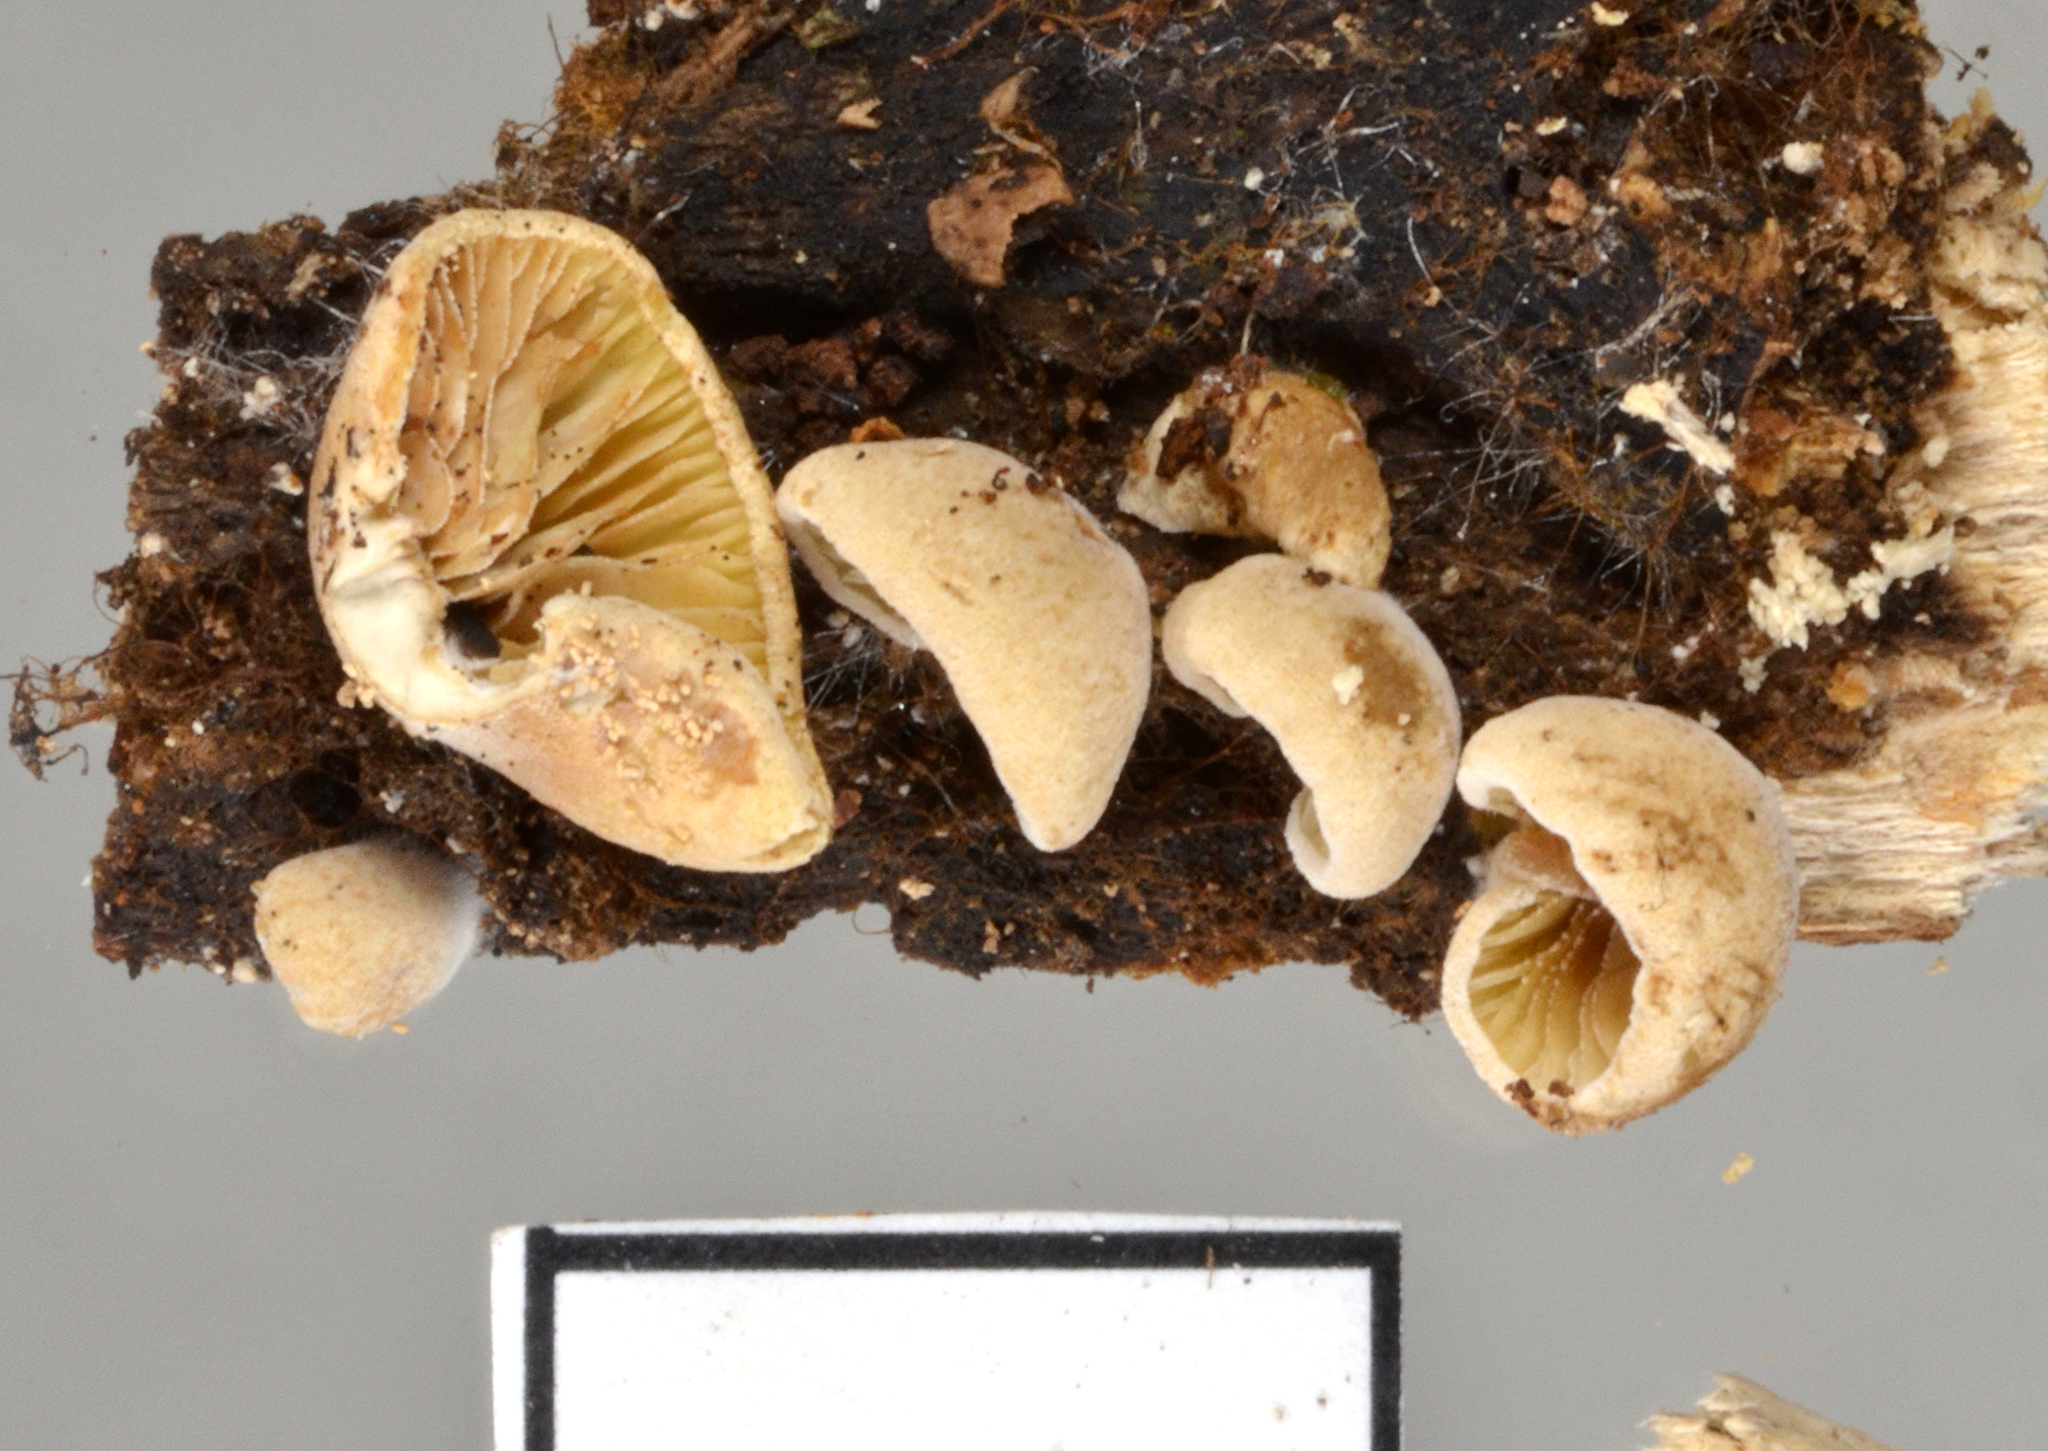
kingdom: Fungi
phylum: Basidiomycota
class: Agaricomycetes
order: Agaricales
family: Crepidotaceae
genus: Simocybe
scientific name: Simocybe rhabarbarina
